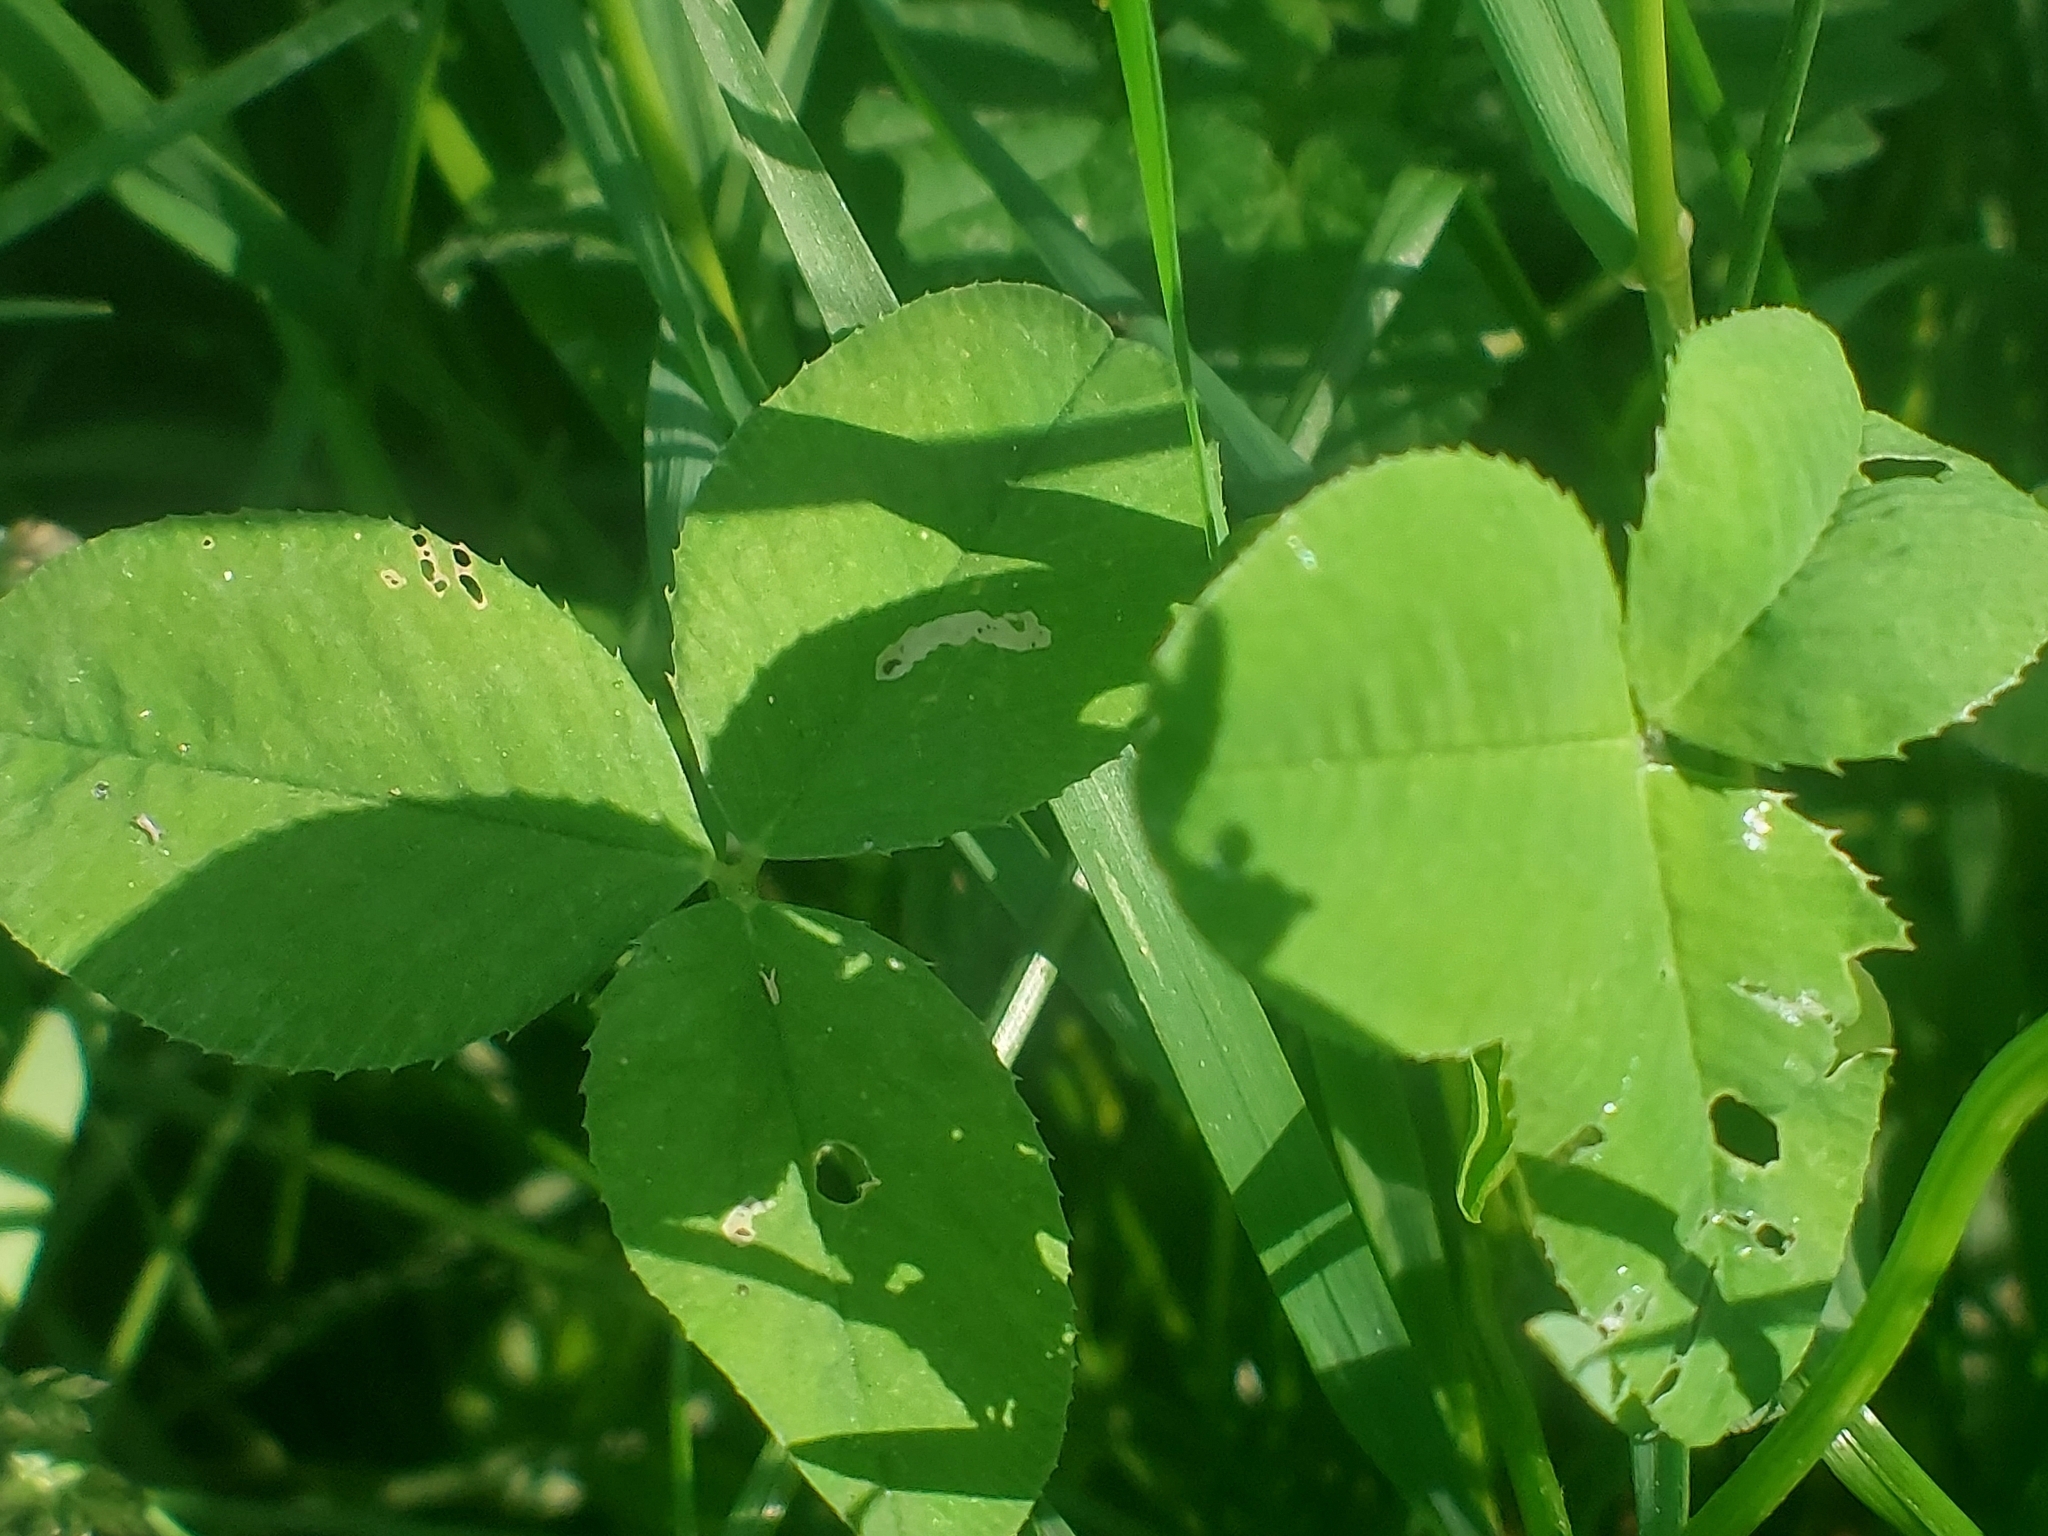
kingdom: Plantae
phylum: Tracheophyta
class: Magnoliopsida
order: Fabales
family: Fabaceae
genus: Trifolium
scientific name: Trifolium repens
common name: White clover
